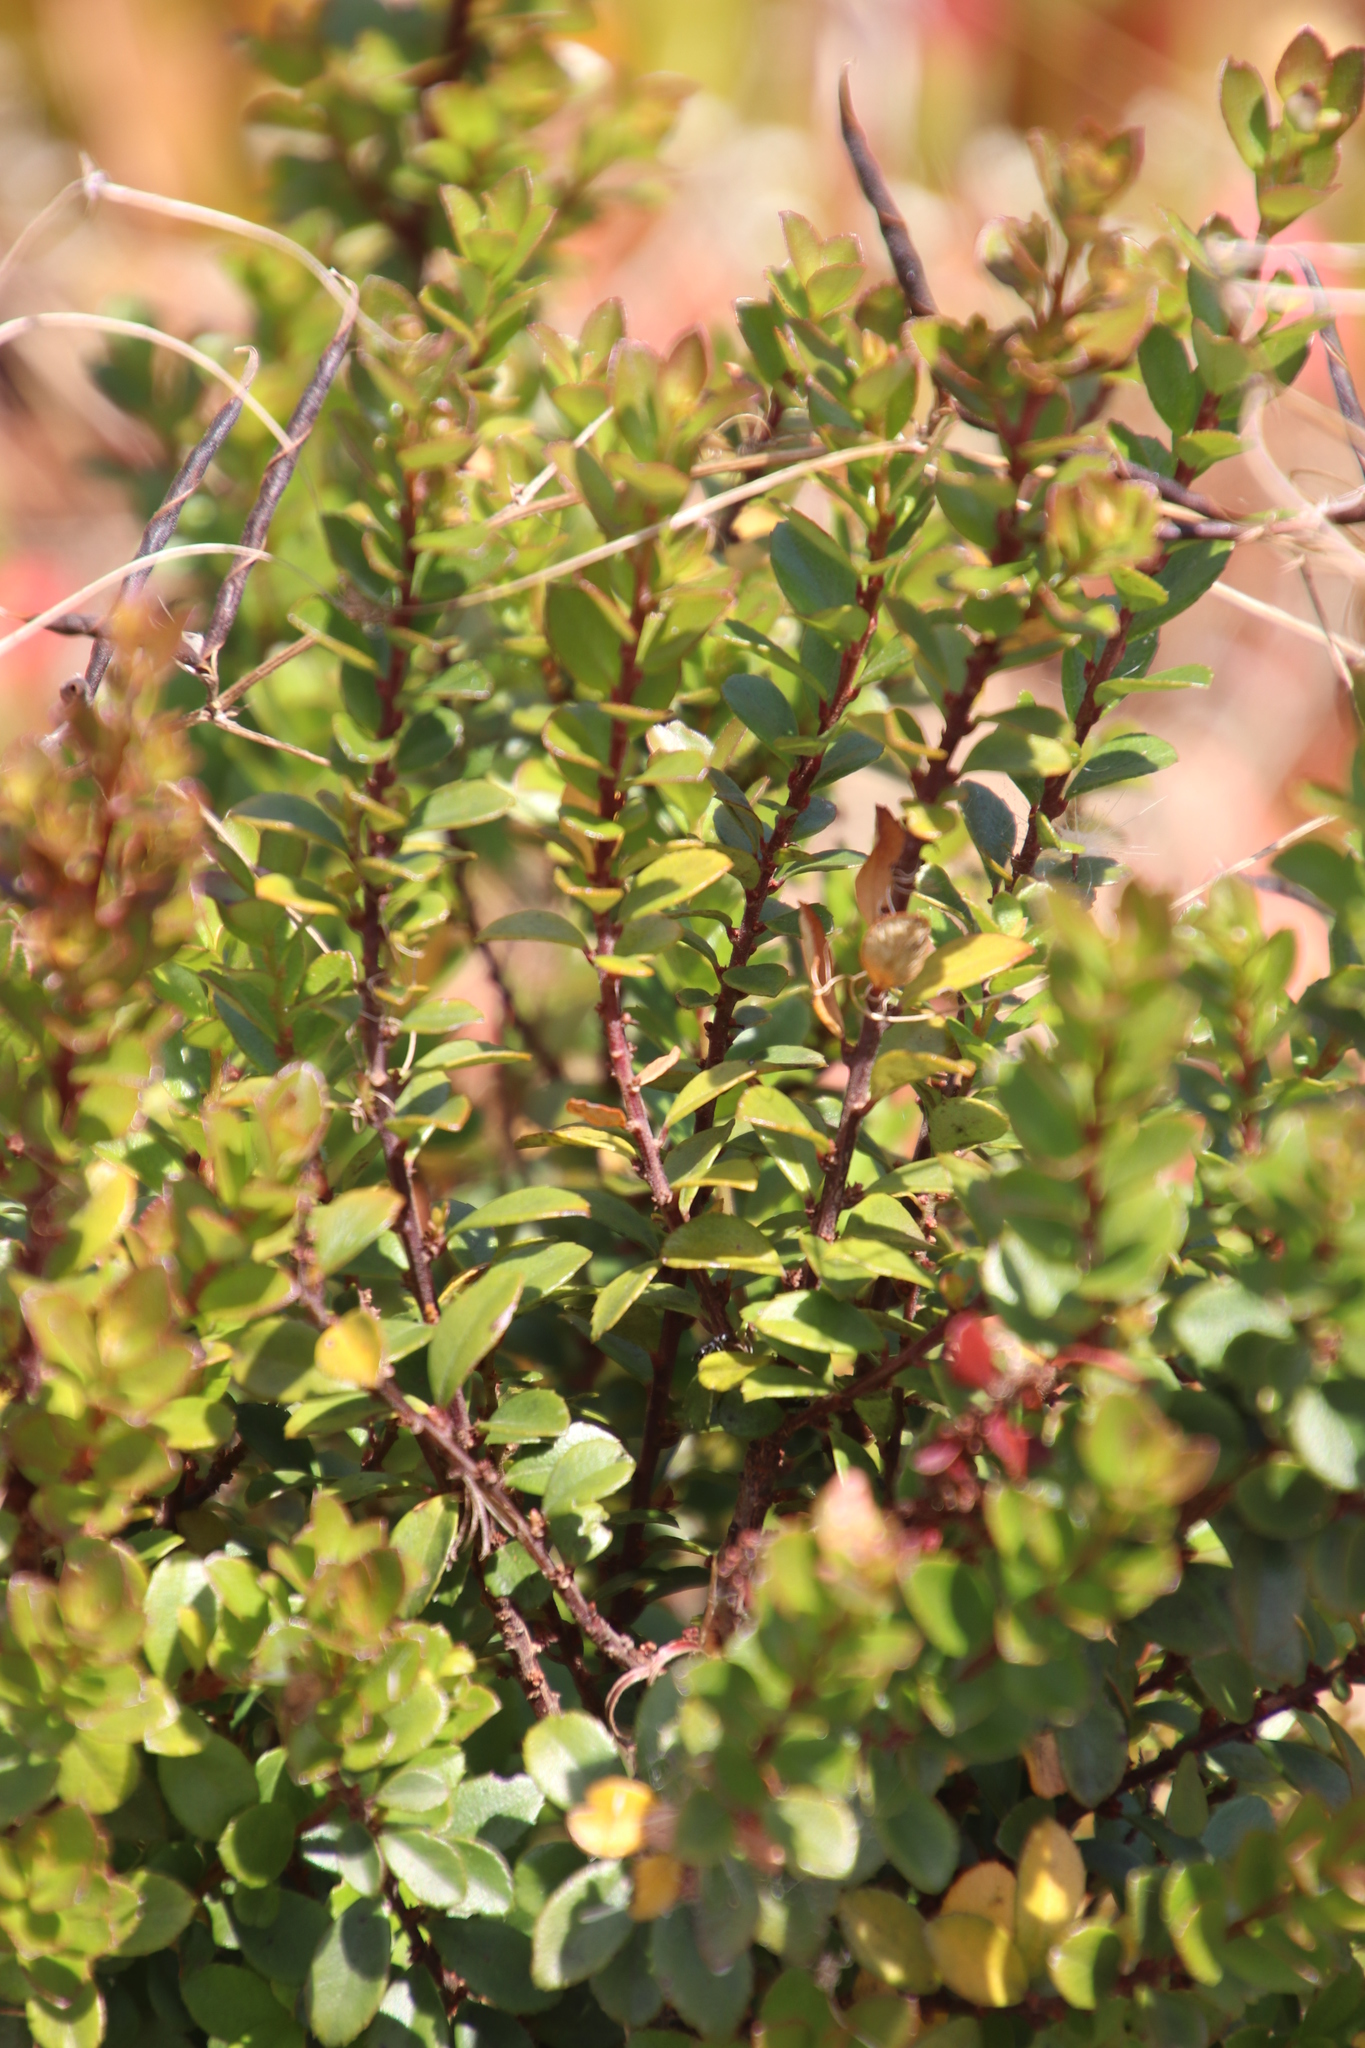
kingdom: Plantae
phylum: Tracheophyta
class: Magnoliopsida
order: Ericales
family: Primulaceae
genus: Myrsine
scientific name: Myrsine africana
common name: African-boxwood
